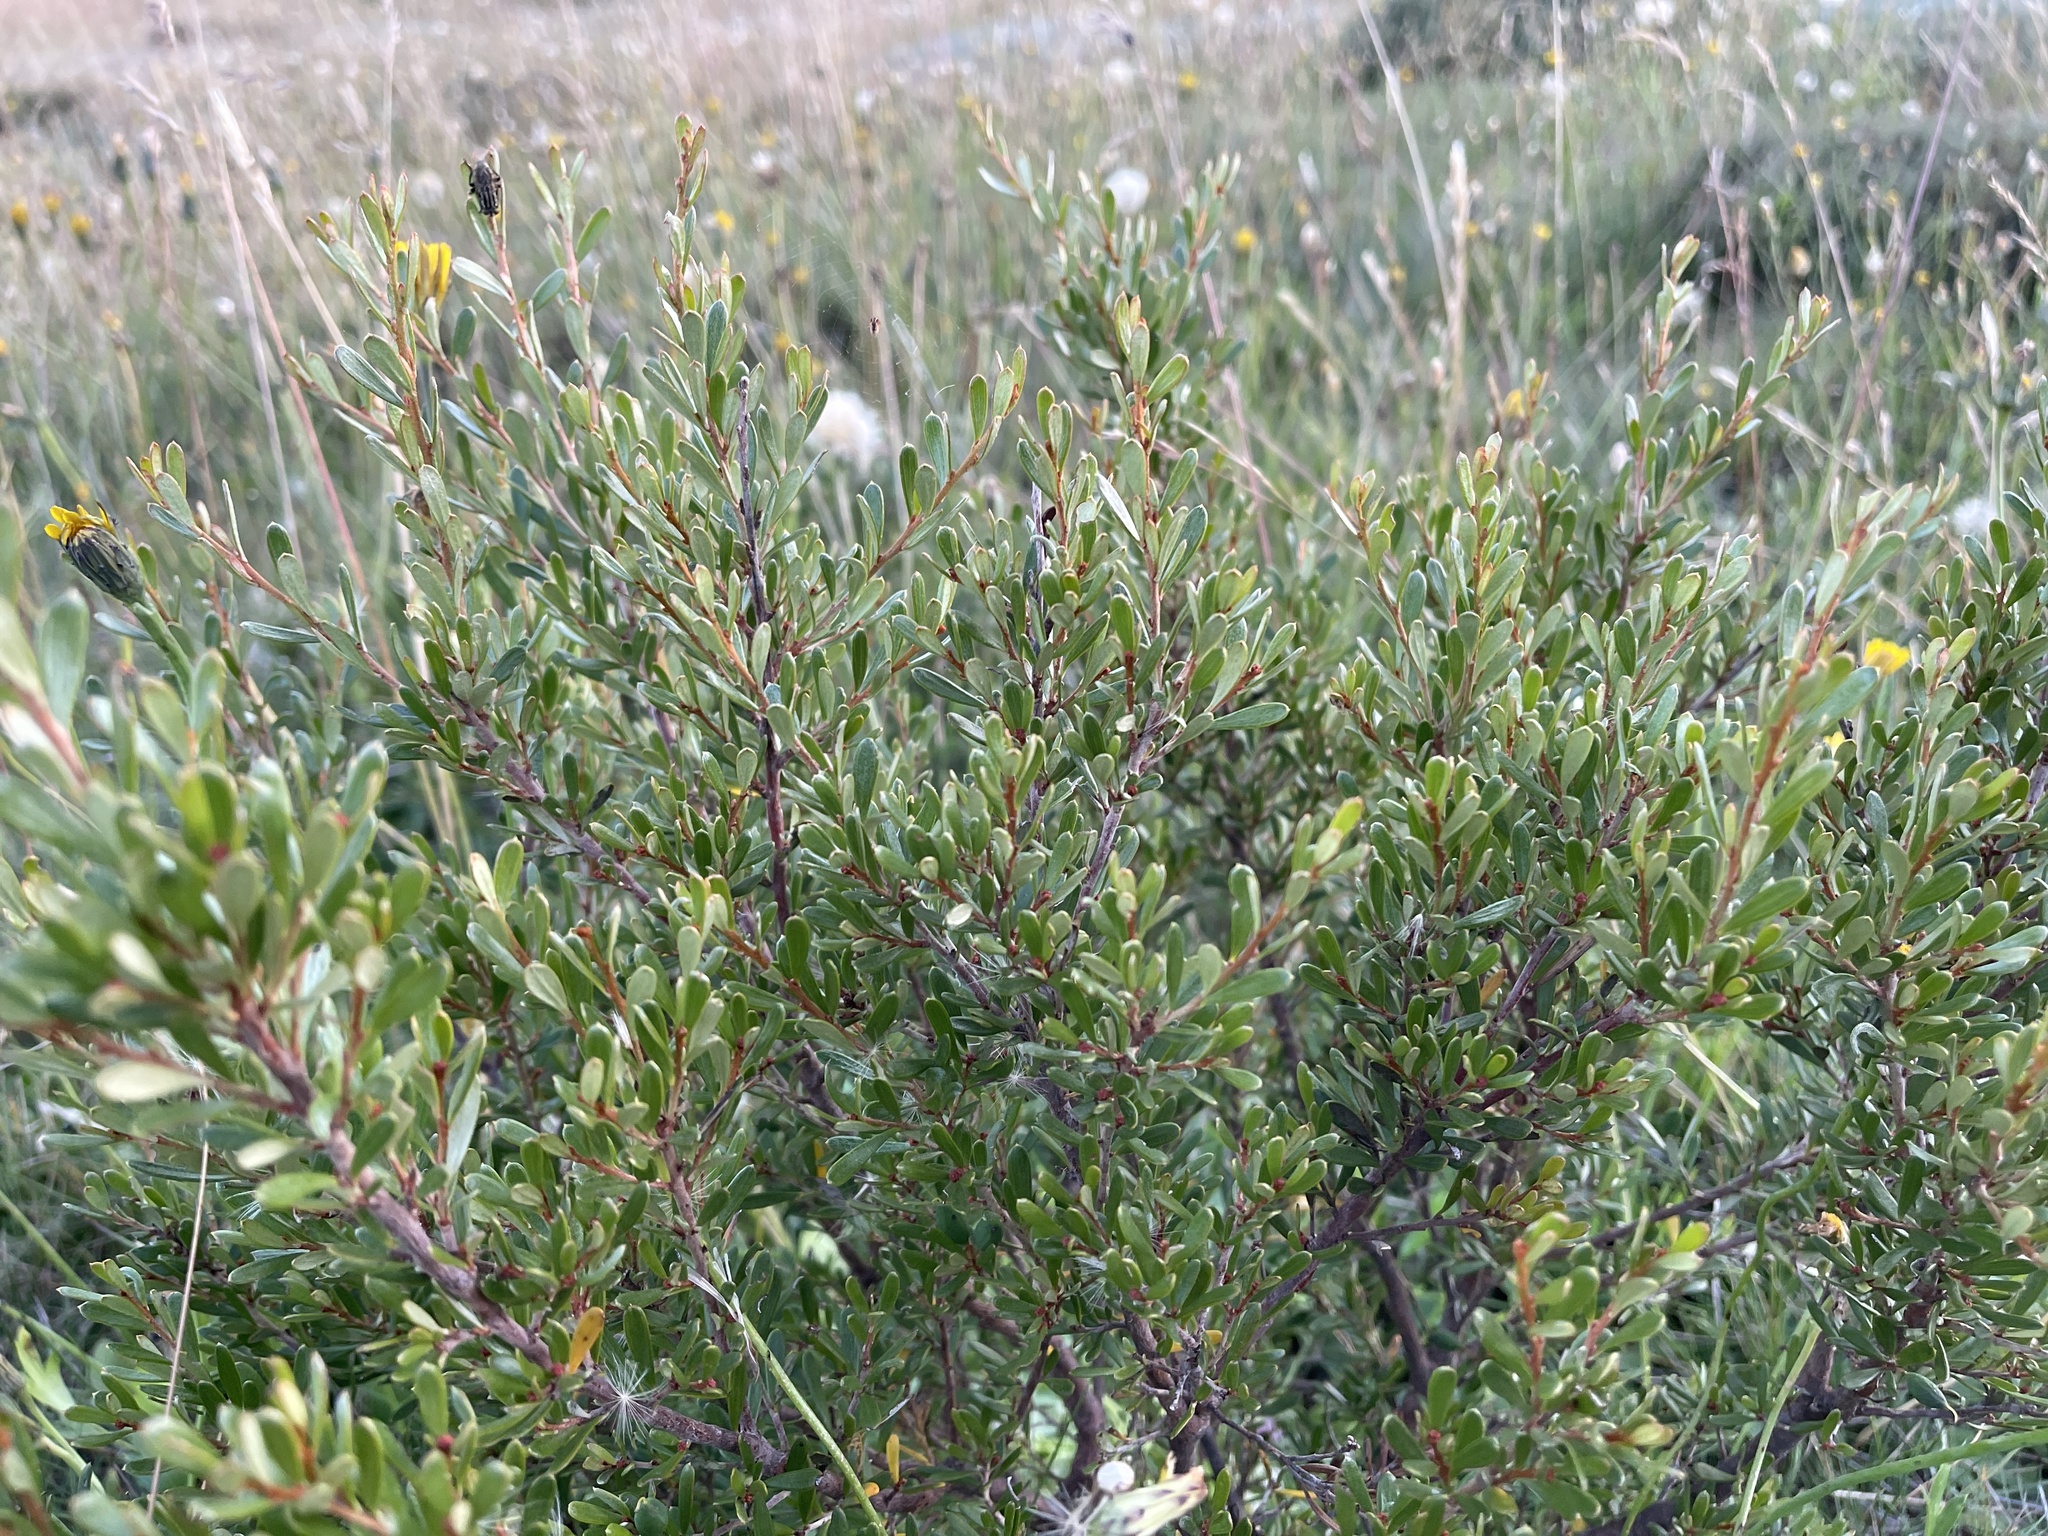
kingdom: Plantae
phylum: Tracheophyta
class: Magnoliopsida
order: Proteales
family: Proteaceae
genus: Grevillea
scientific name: Grevillea australis
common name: Alpine grevillea
